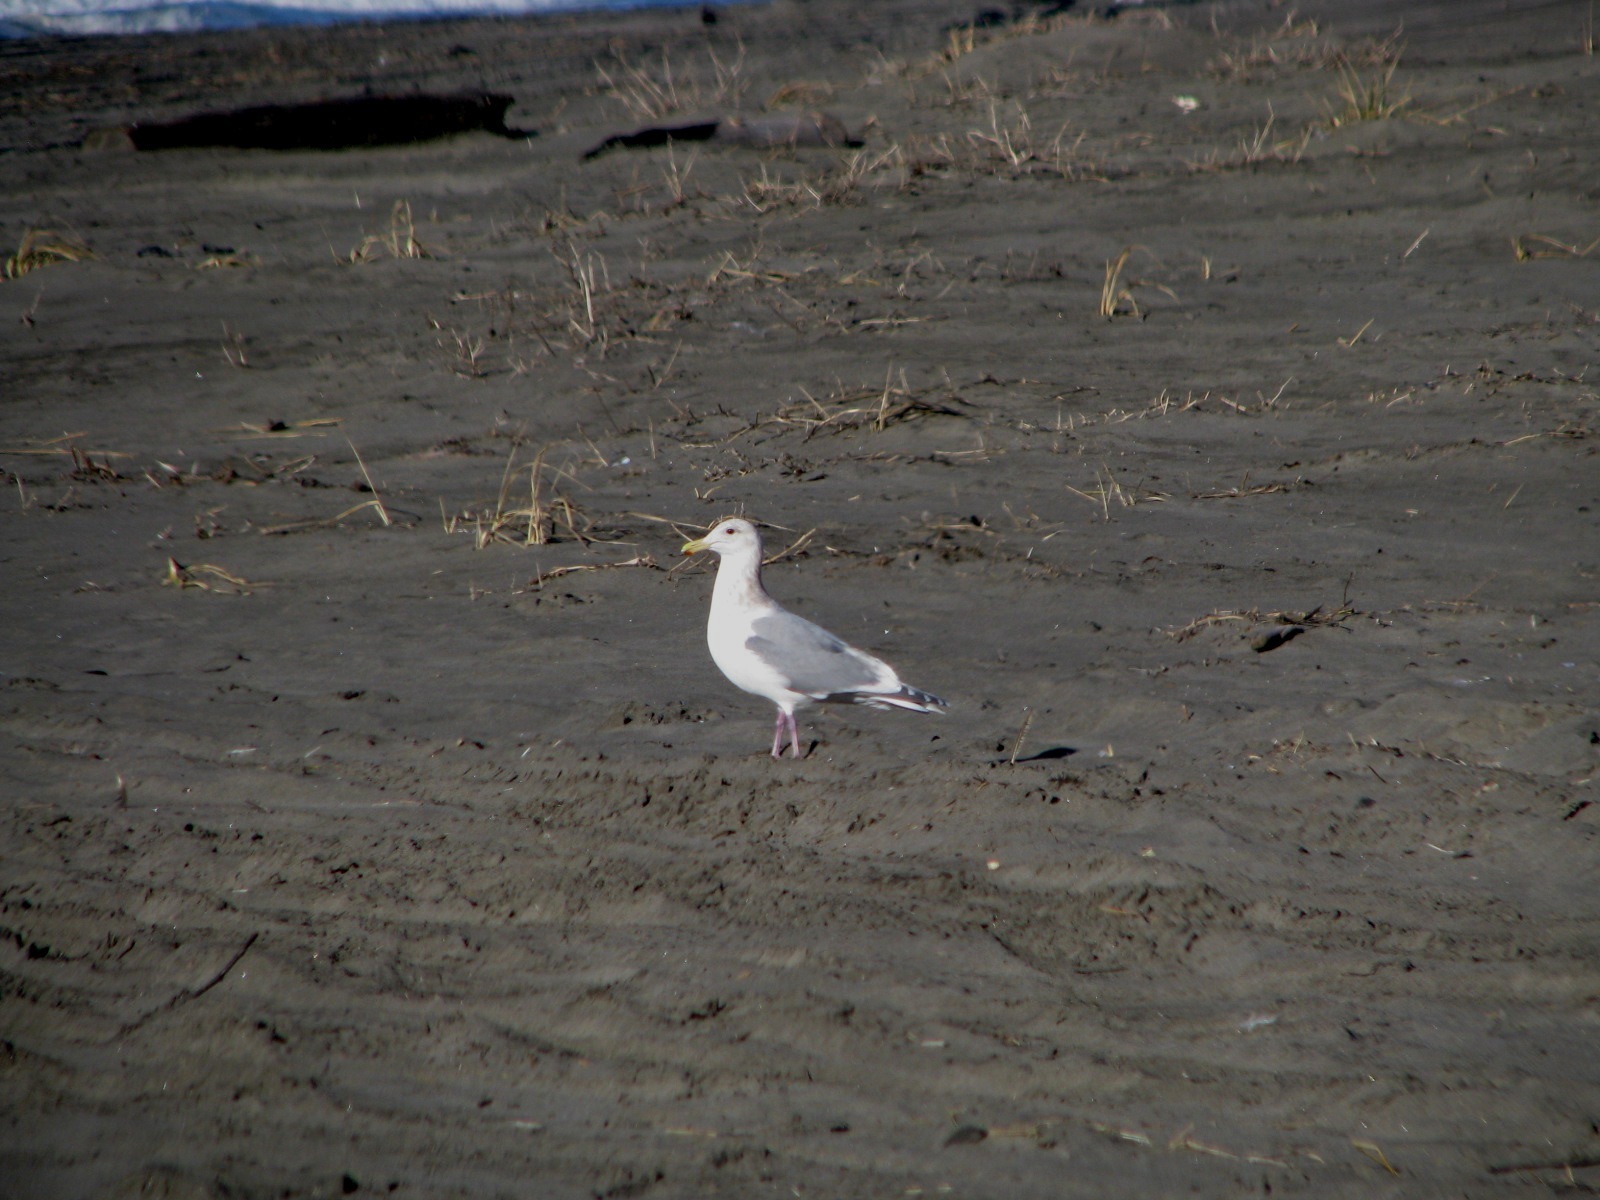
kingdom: Animalia
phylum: Chordata
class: Aves
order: Charadriiformes
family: Laridae
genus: Larus
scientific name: Larus
